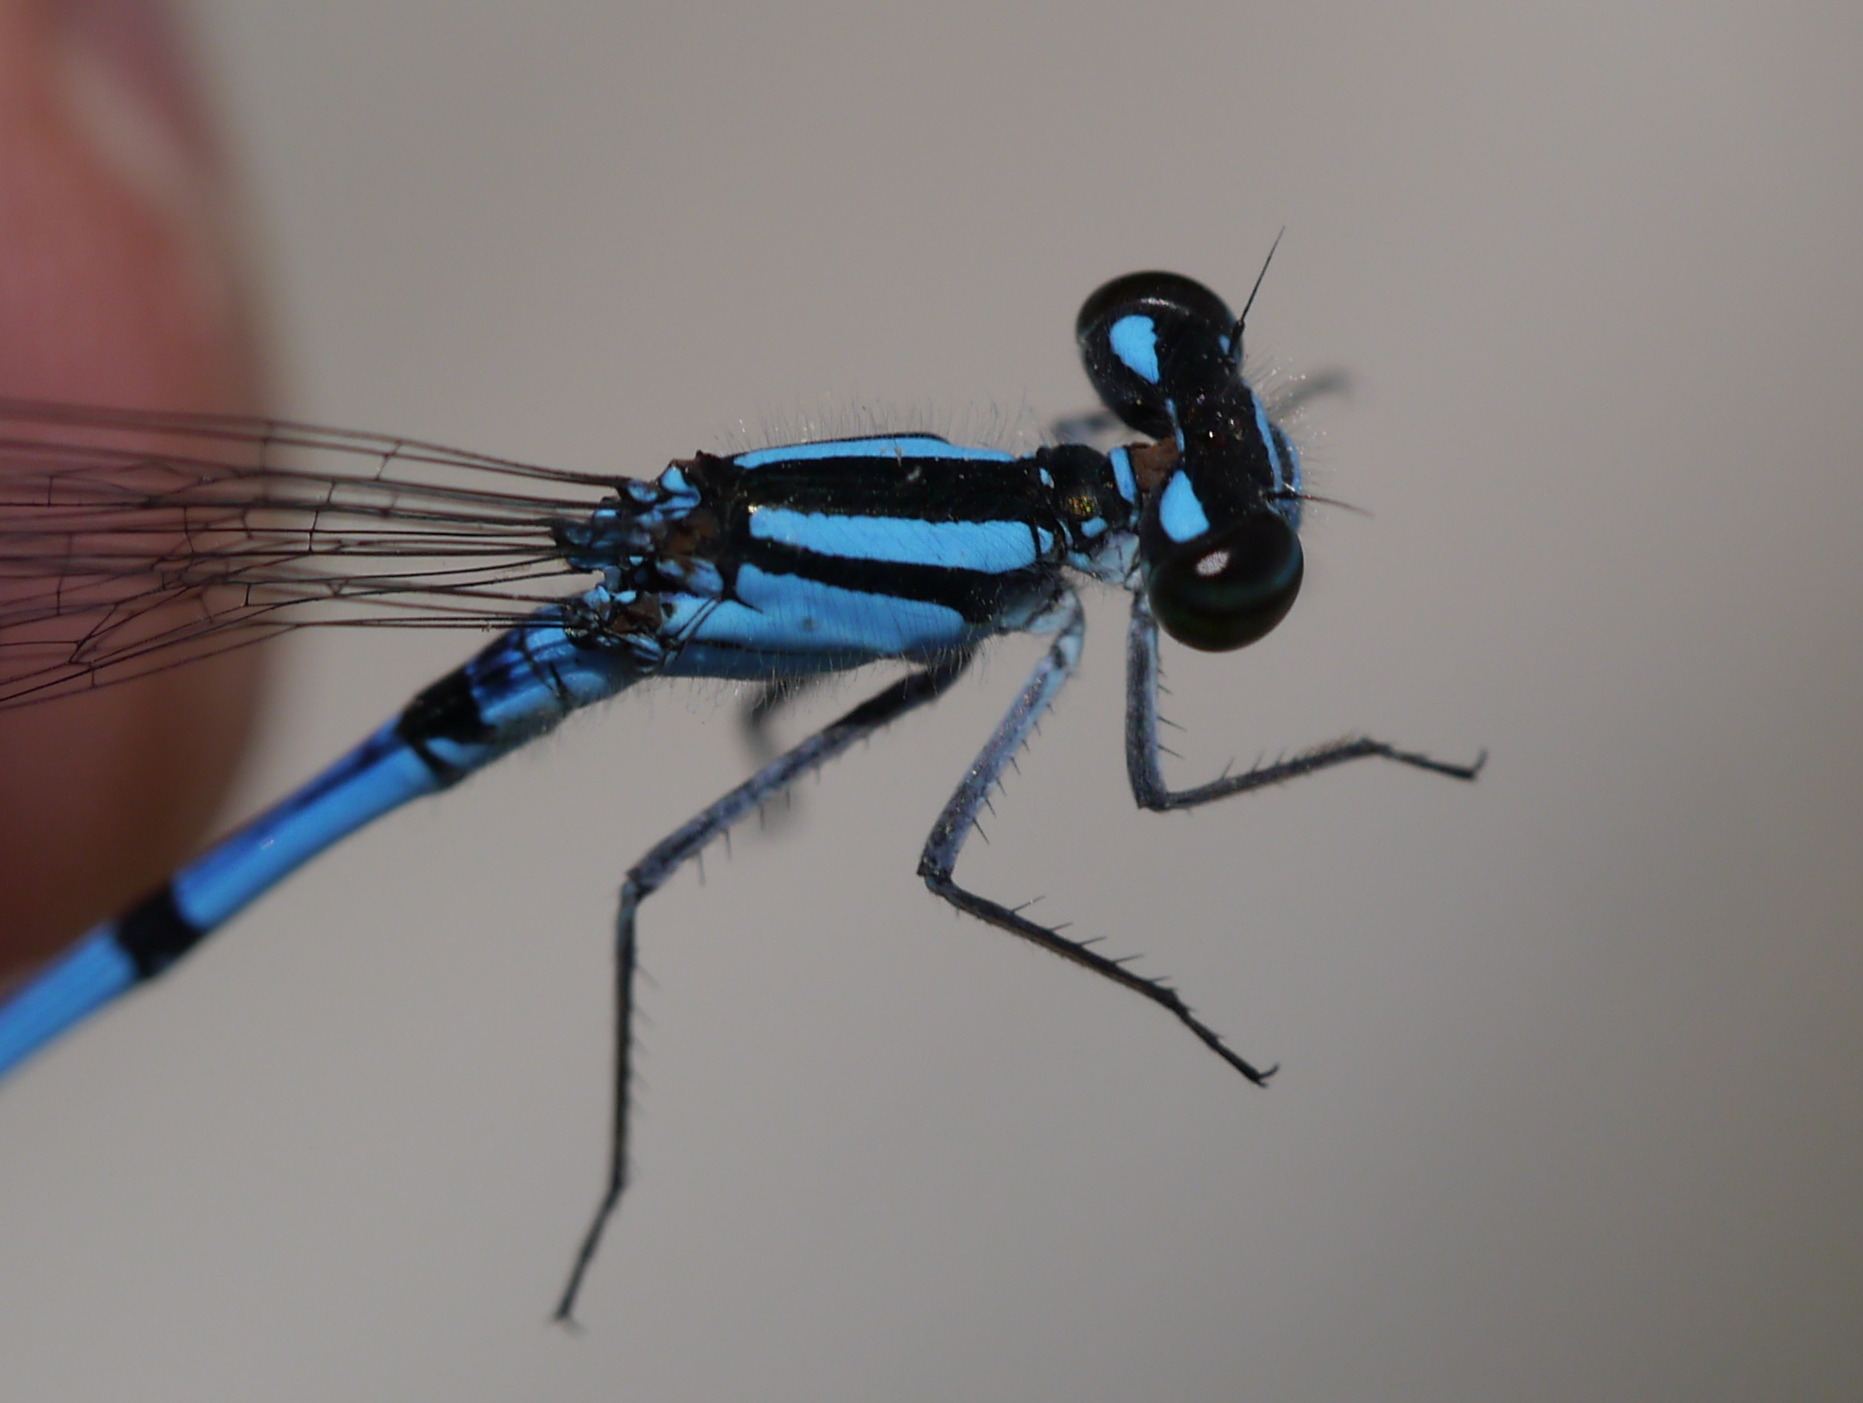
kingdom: Animalia
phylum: Arthropoda
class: Insecta
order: Odonata
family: Coenagrionidae
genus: Enallagma
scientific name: Enallagma hageni
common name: Hagen's bluet
